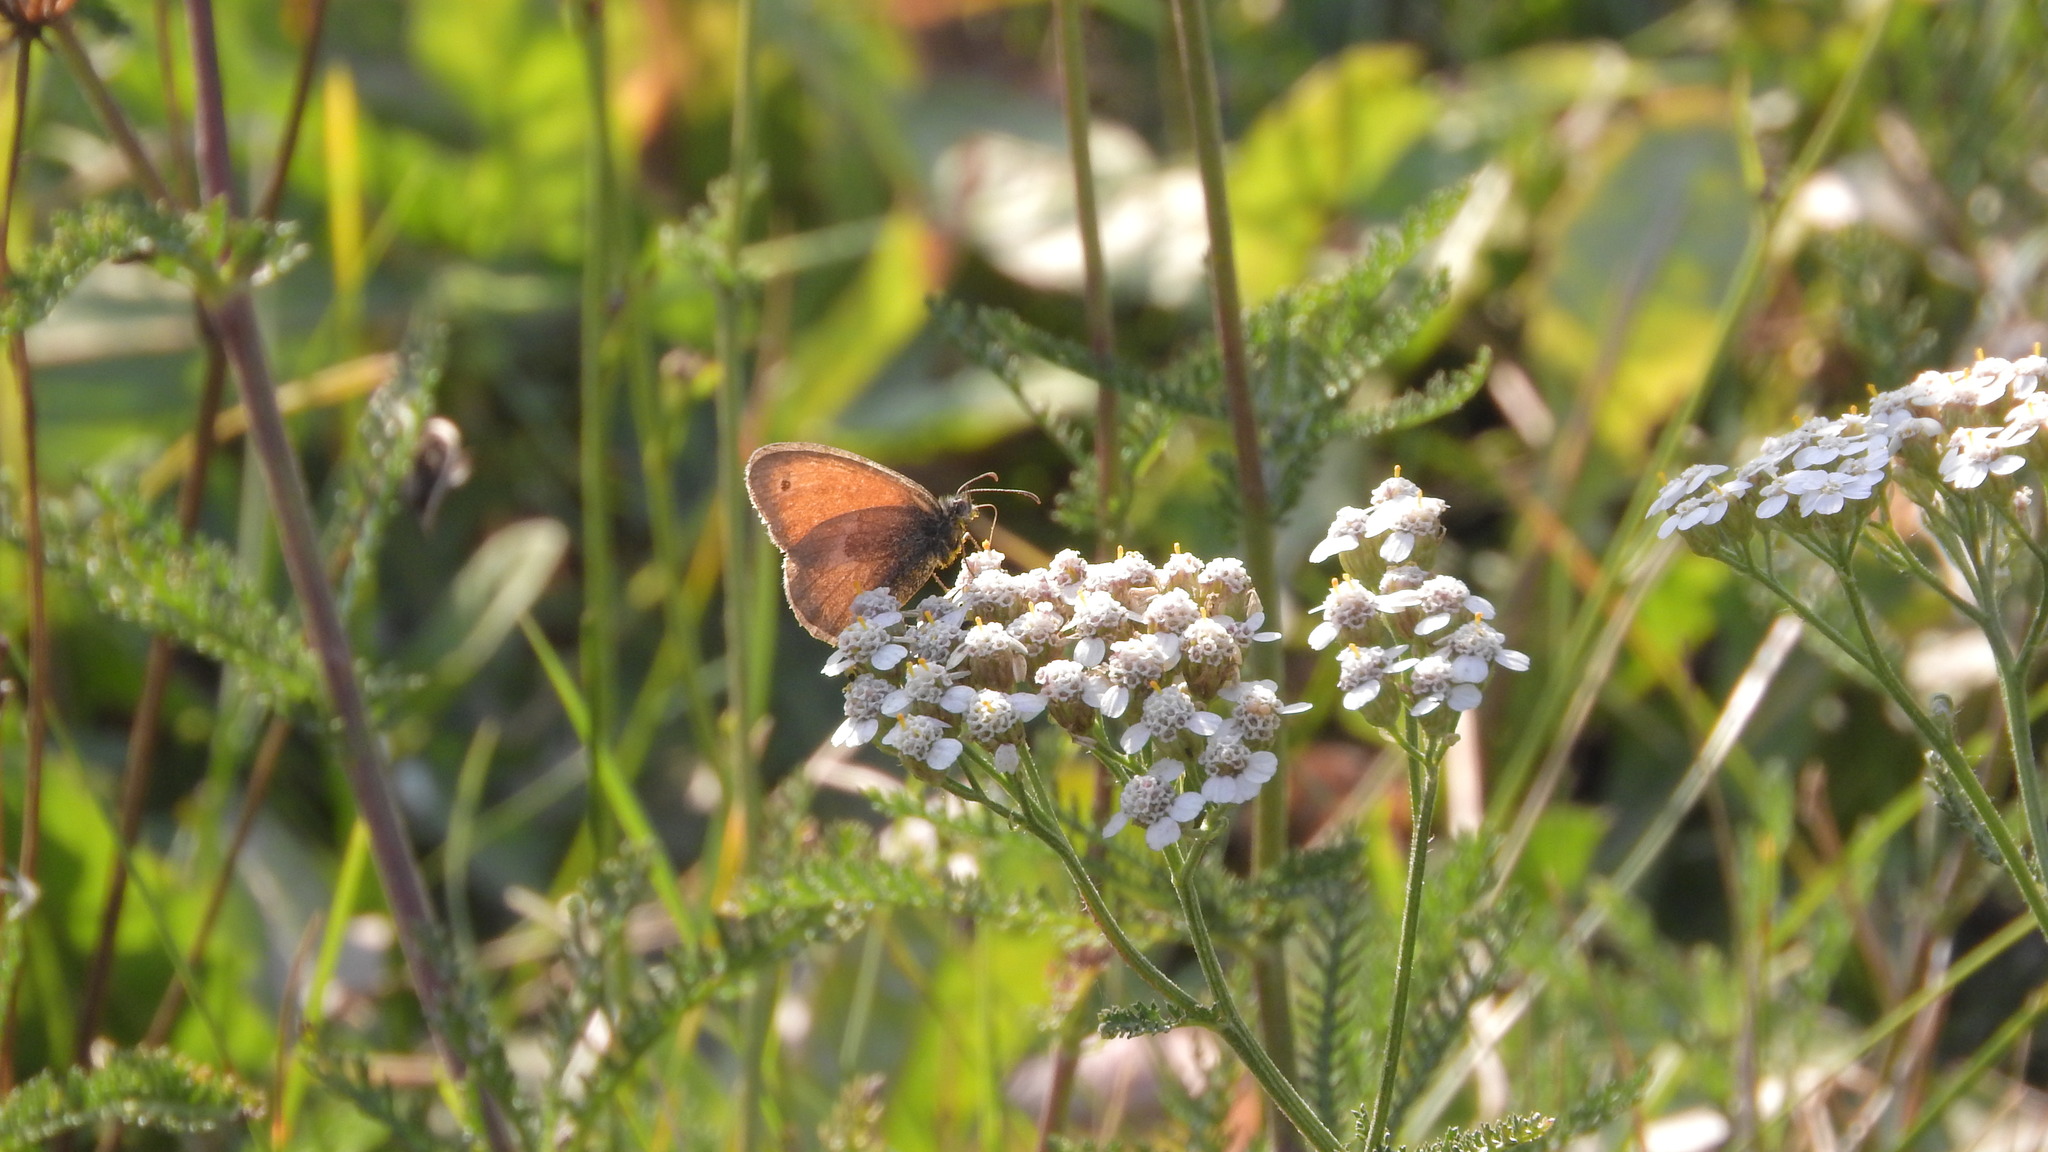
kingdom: Animalia
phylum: Arthropoda
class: Insecta
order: Lepidoptera
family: Nymphalidae
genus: Coenonympha
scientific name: Coenonympha pamphilus
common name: Small heath
